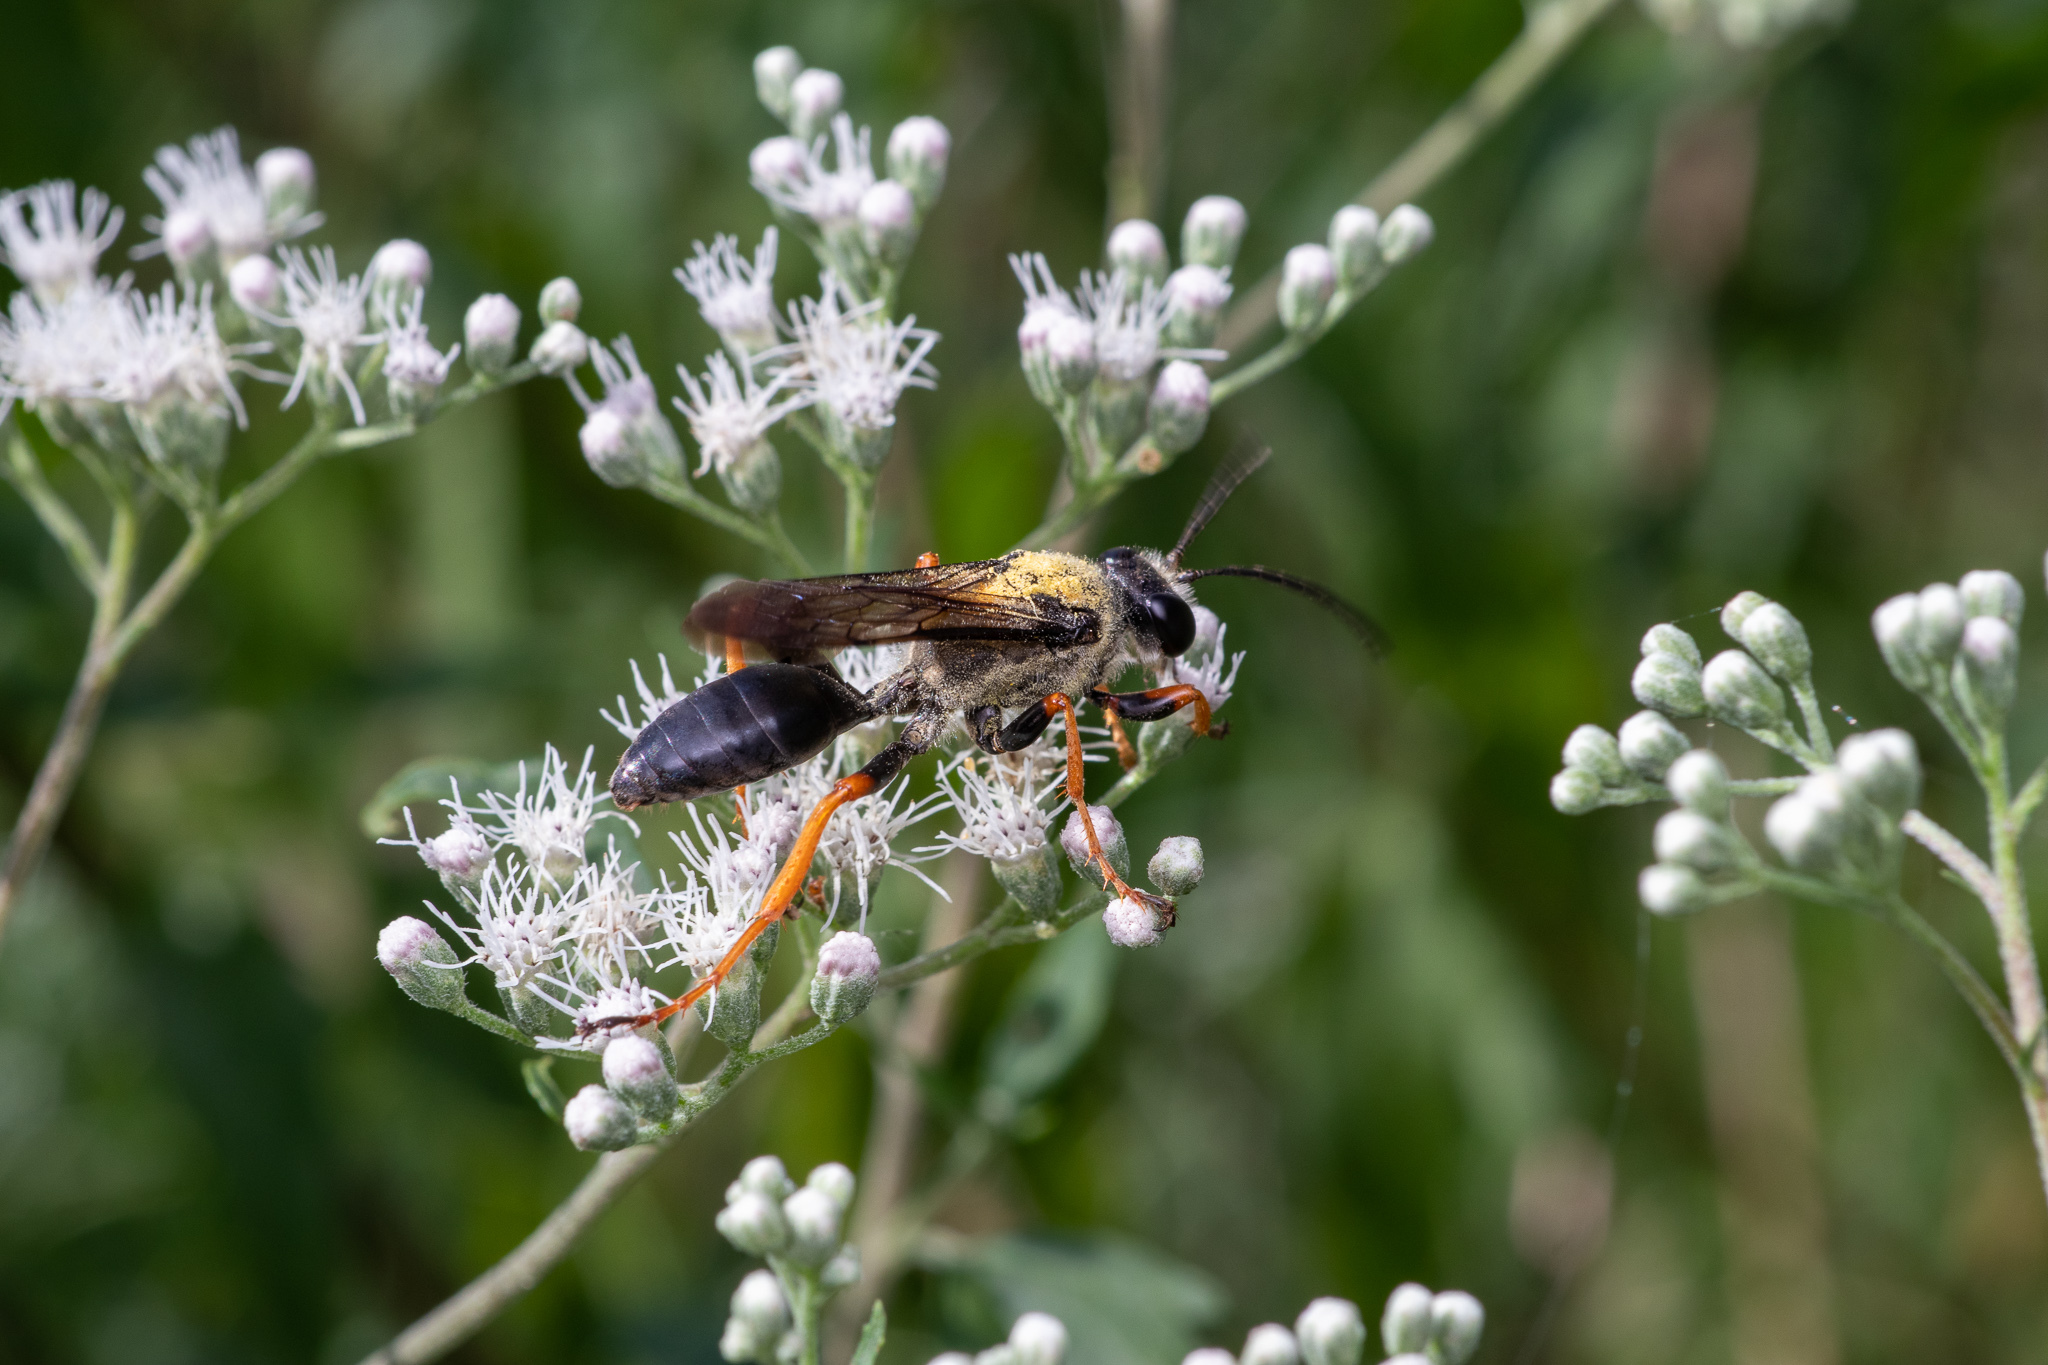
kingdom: Animalia
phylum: Arthropoda
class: Insecta
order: Hymenoptera
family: Sphecidae
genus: Sphex
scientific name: Sphex nudus
